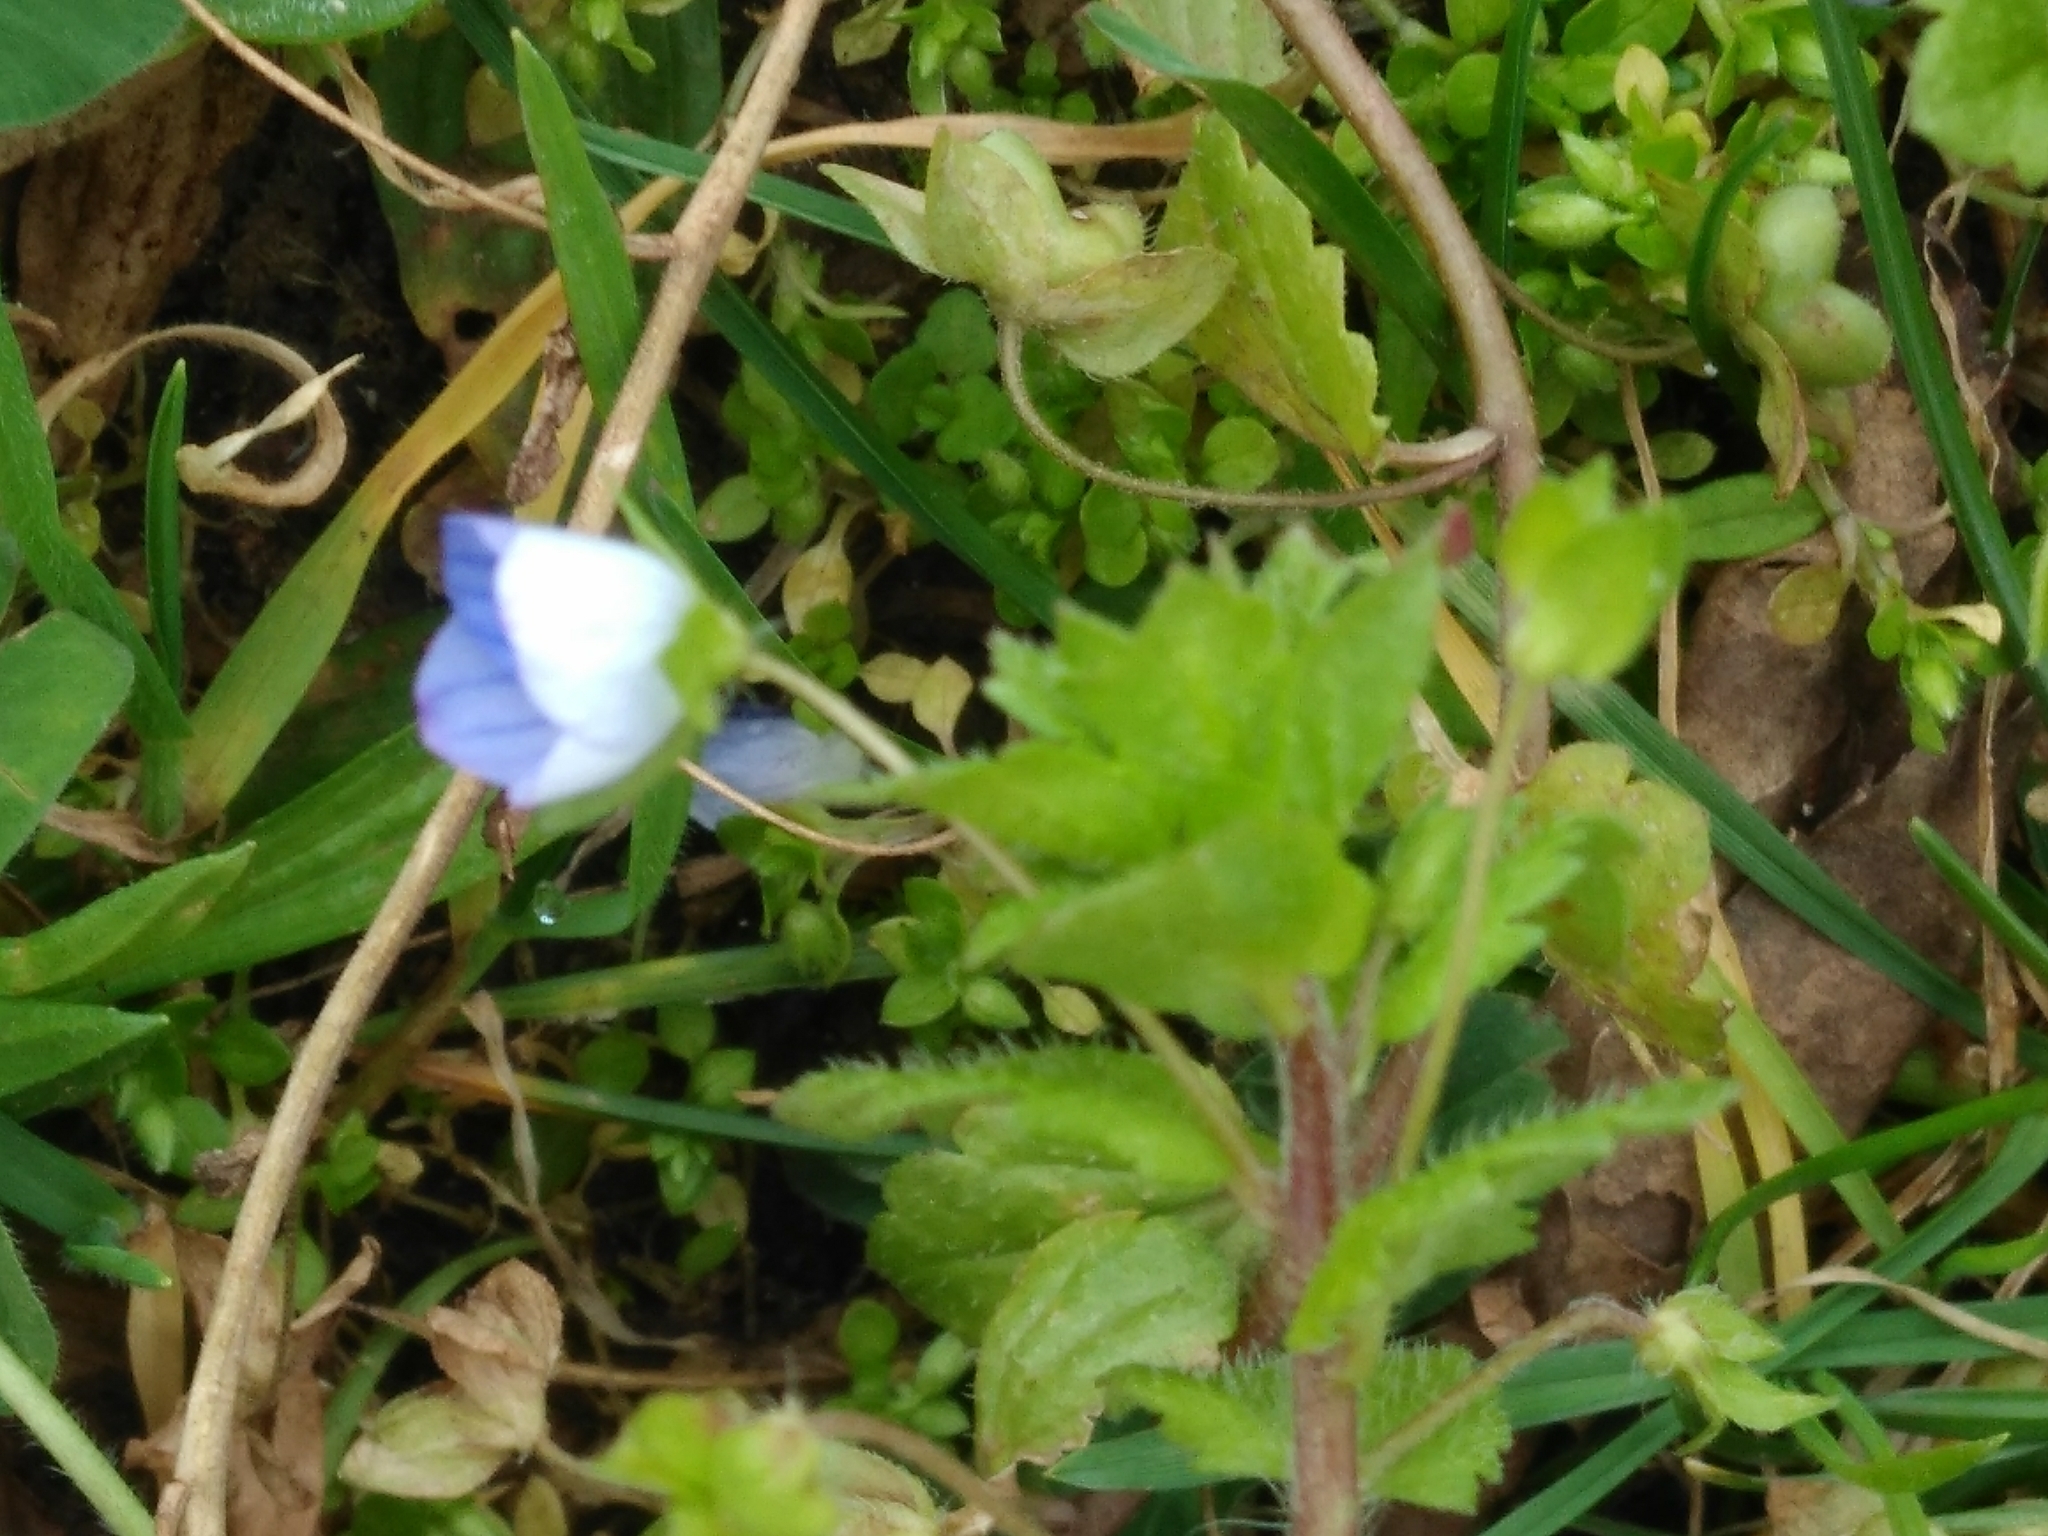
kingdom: Plantae
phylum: Tracheophyta
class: Magnoliopsida
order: Lamiales
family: Plantaginaceae
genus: Veronica
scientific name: Veronica persica
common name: Common field-speedwell
